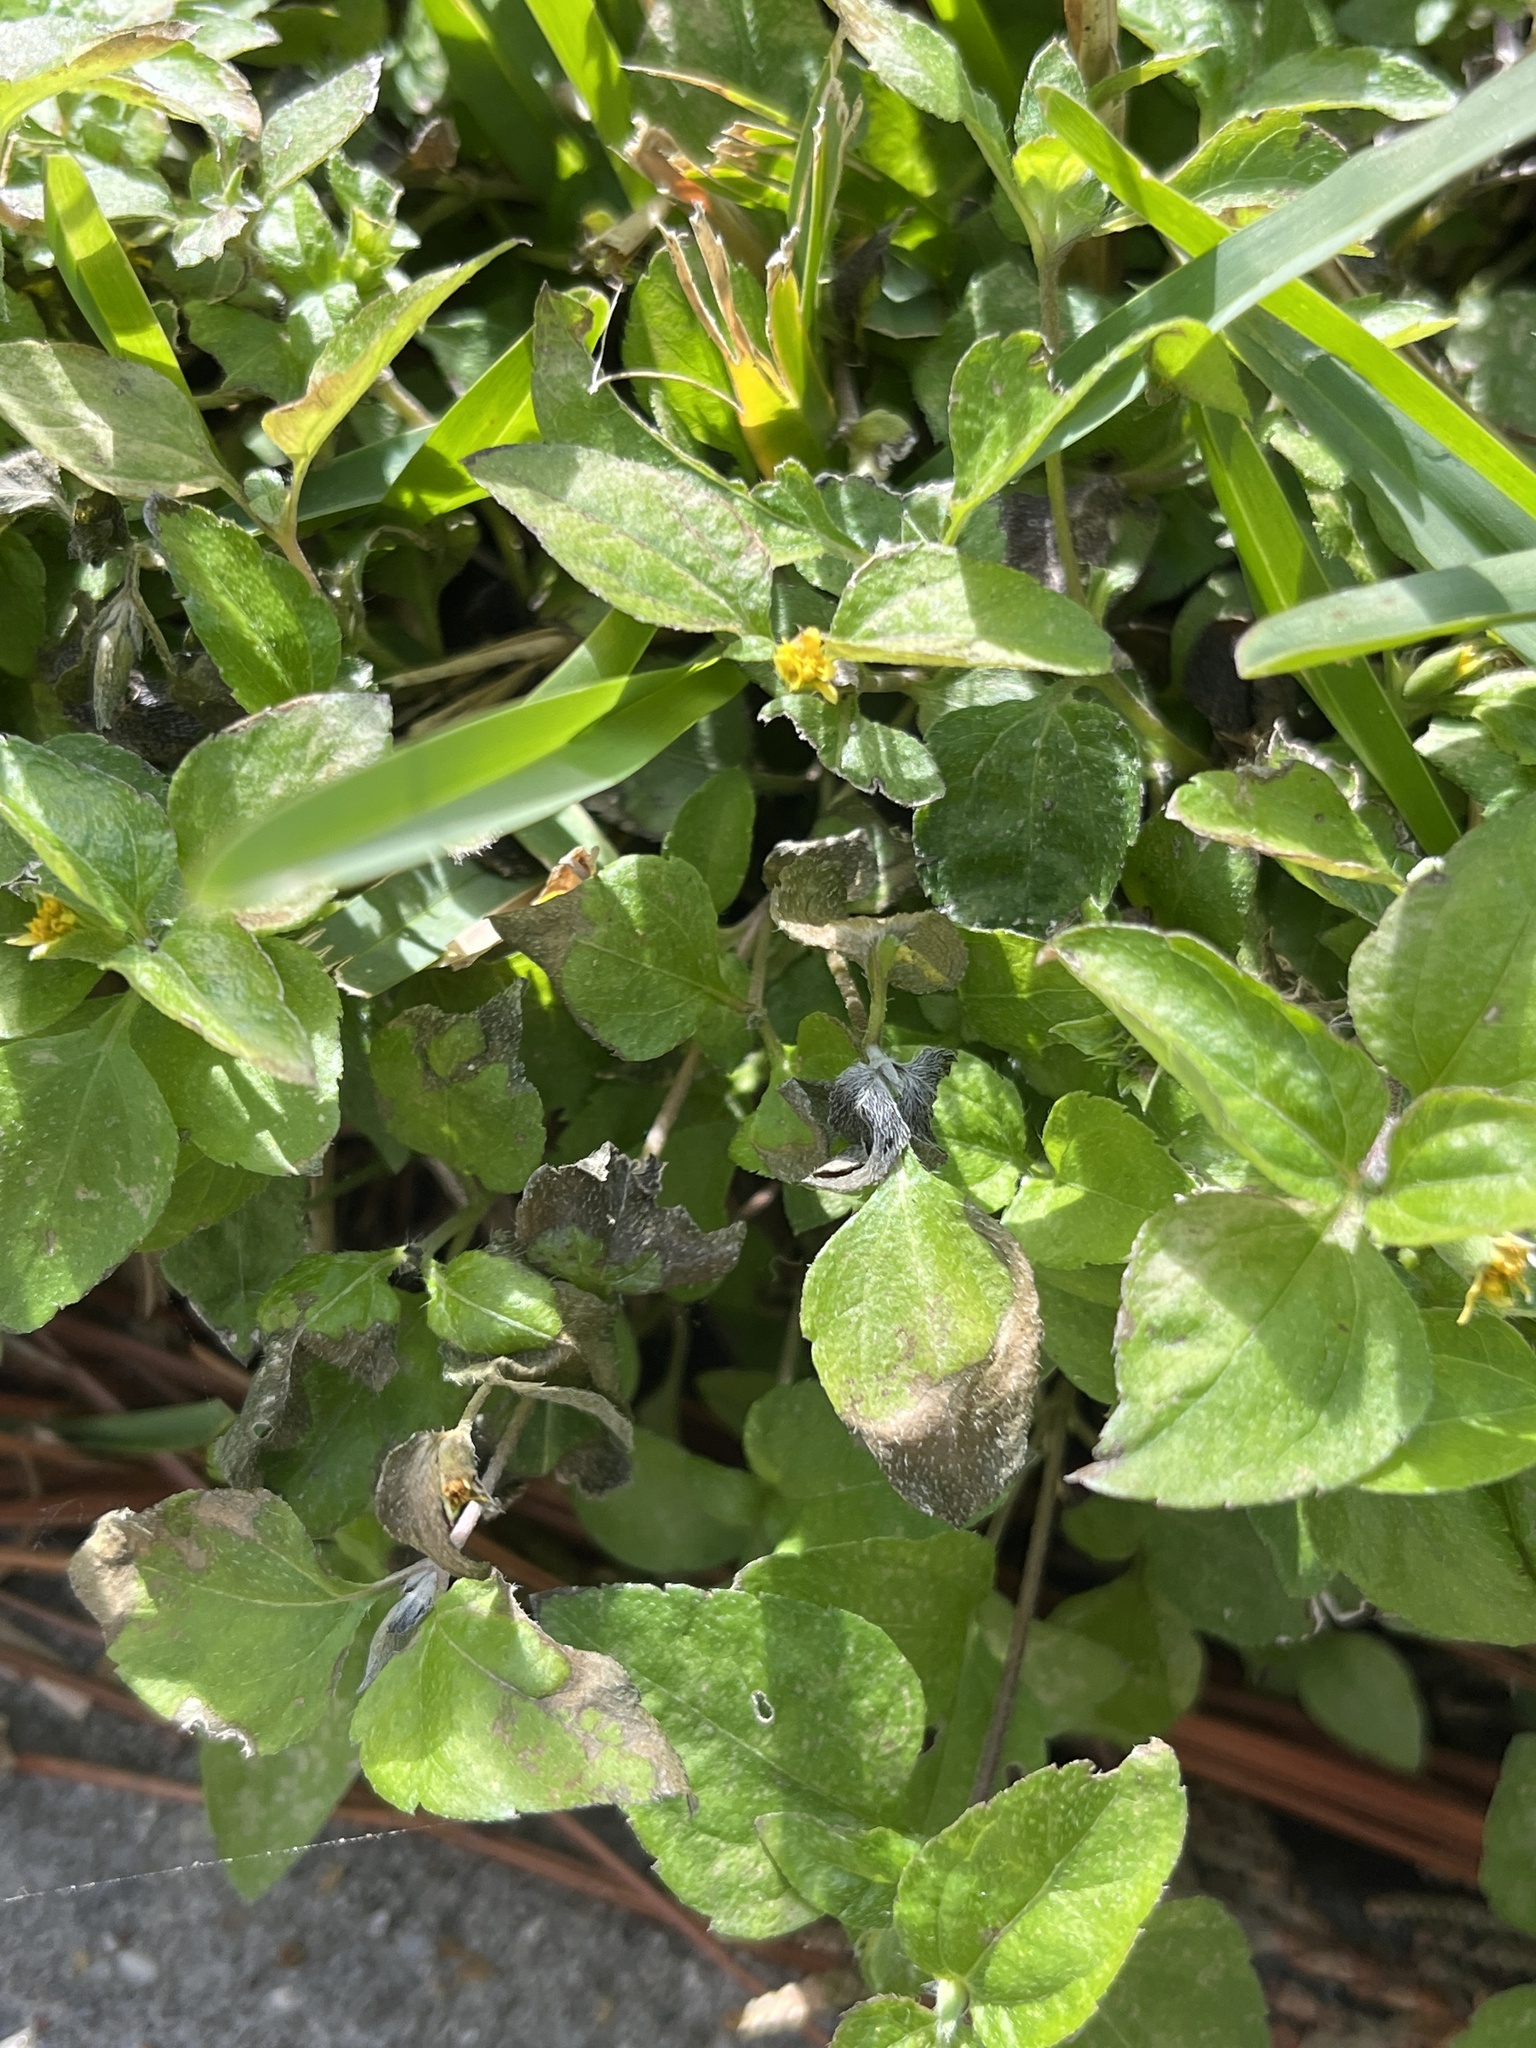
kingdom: Plantae
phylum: Tracheophyta
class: Magnoliopsida
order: Asterales
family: Asteraceae
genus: Calyptocarpus
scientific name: Calyptocarpus vialis
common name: Straggler daisy
